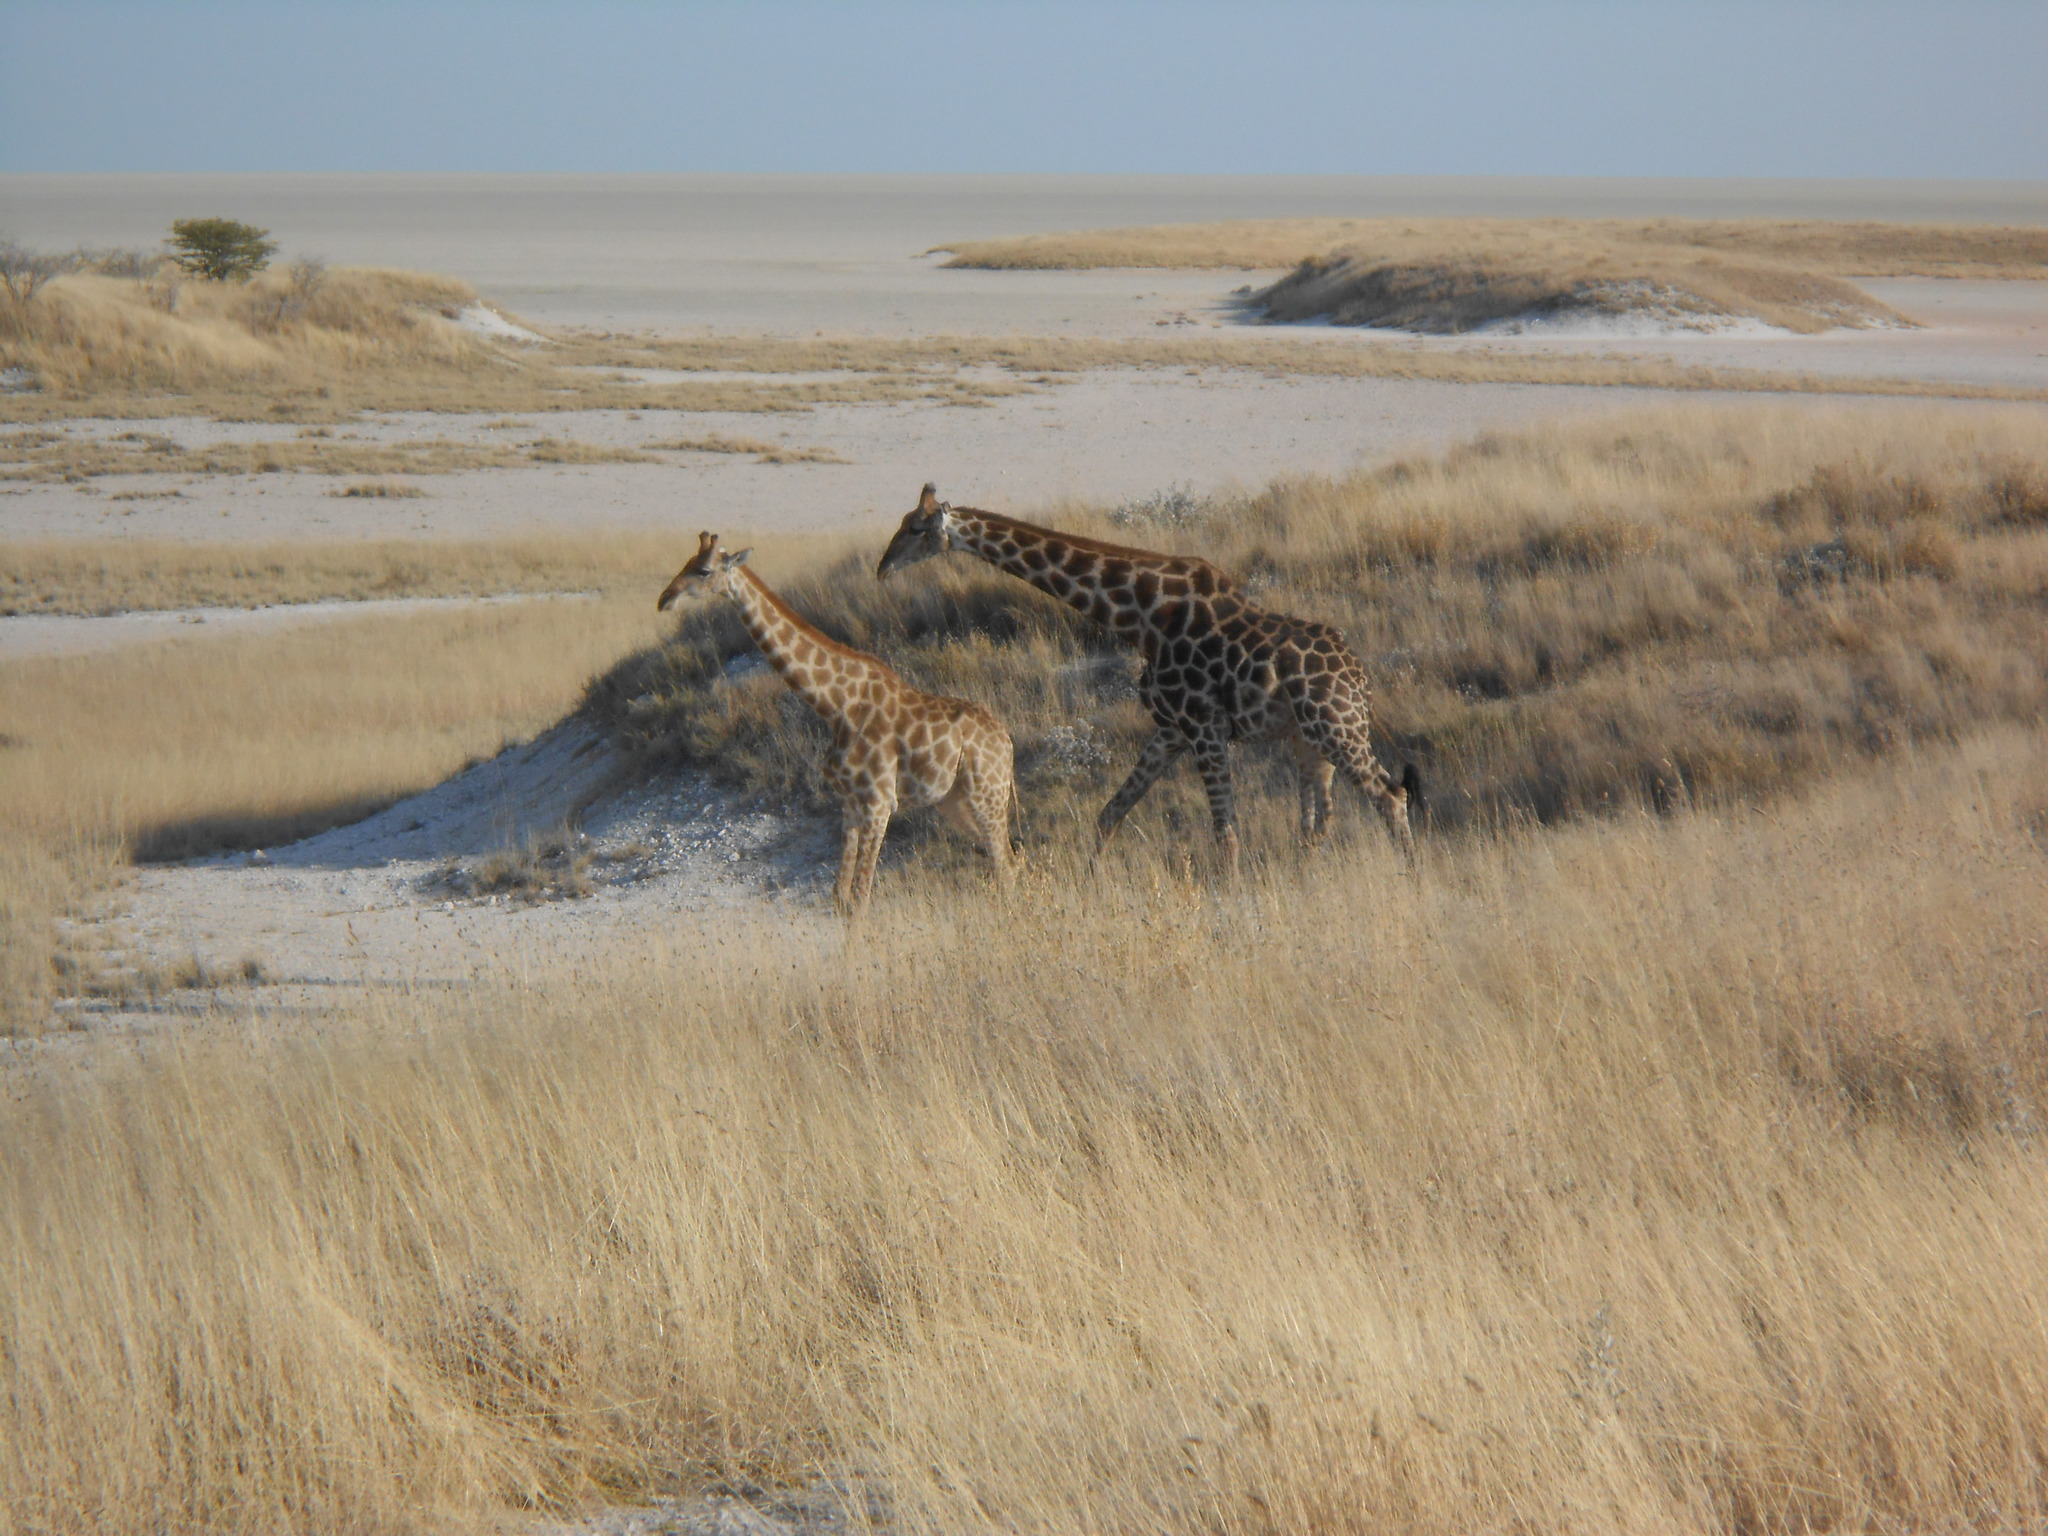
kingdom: Animalia
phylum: Chordata
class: Mammalia
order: Artiodactyla
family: Giraffidae
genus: Giraffa
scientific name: Giraffa giraffa
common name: Southern giraffe
